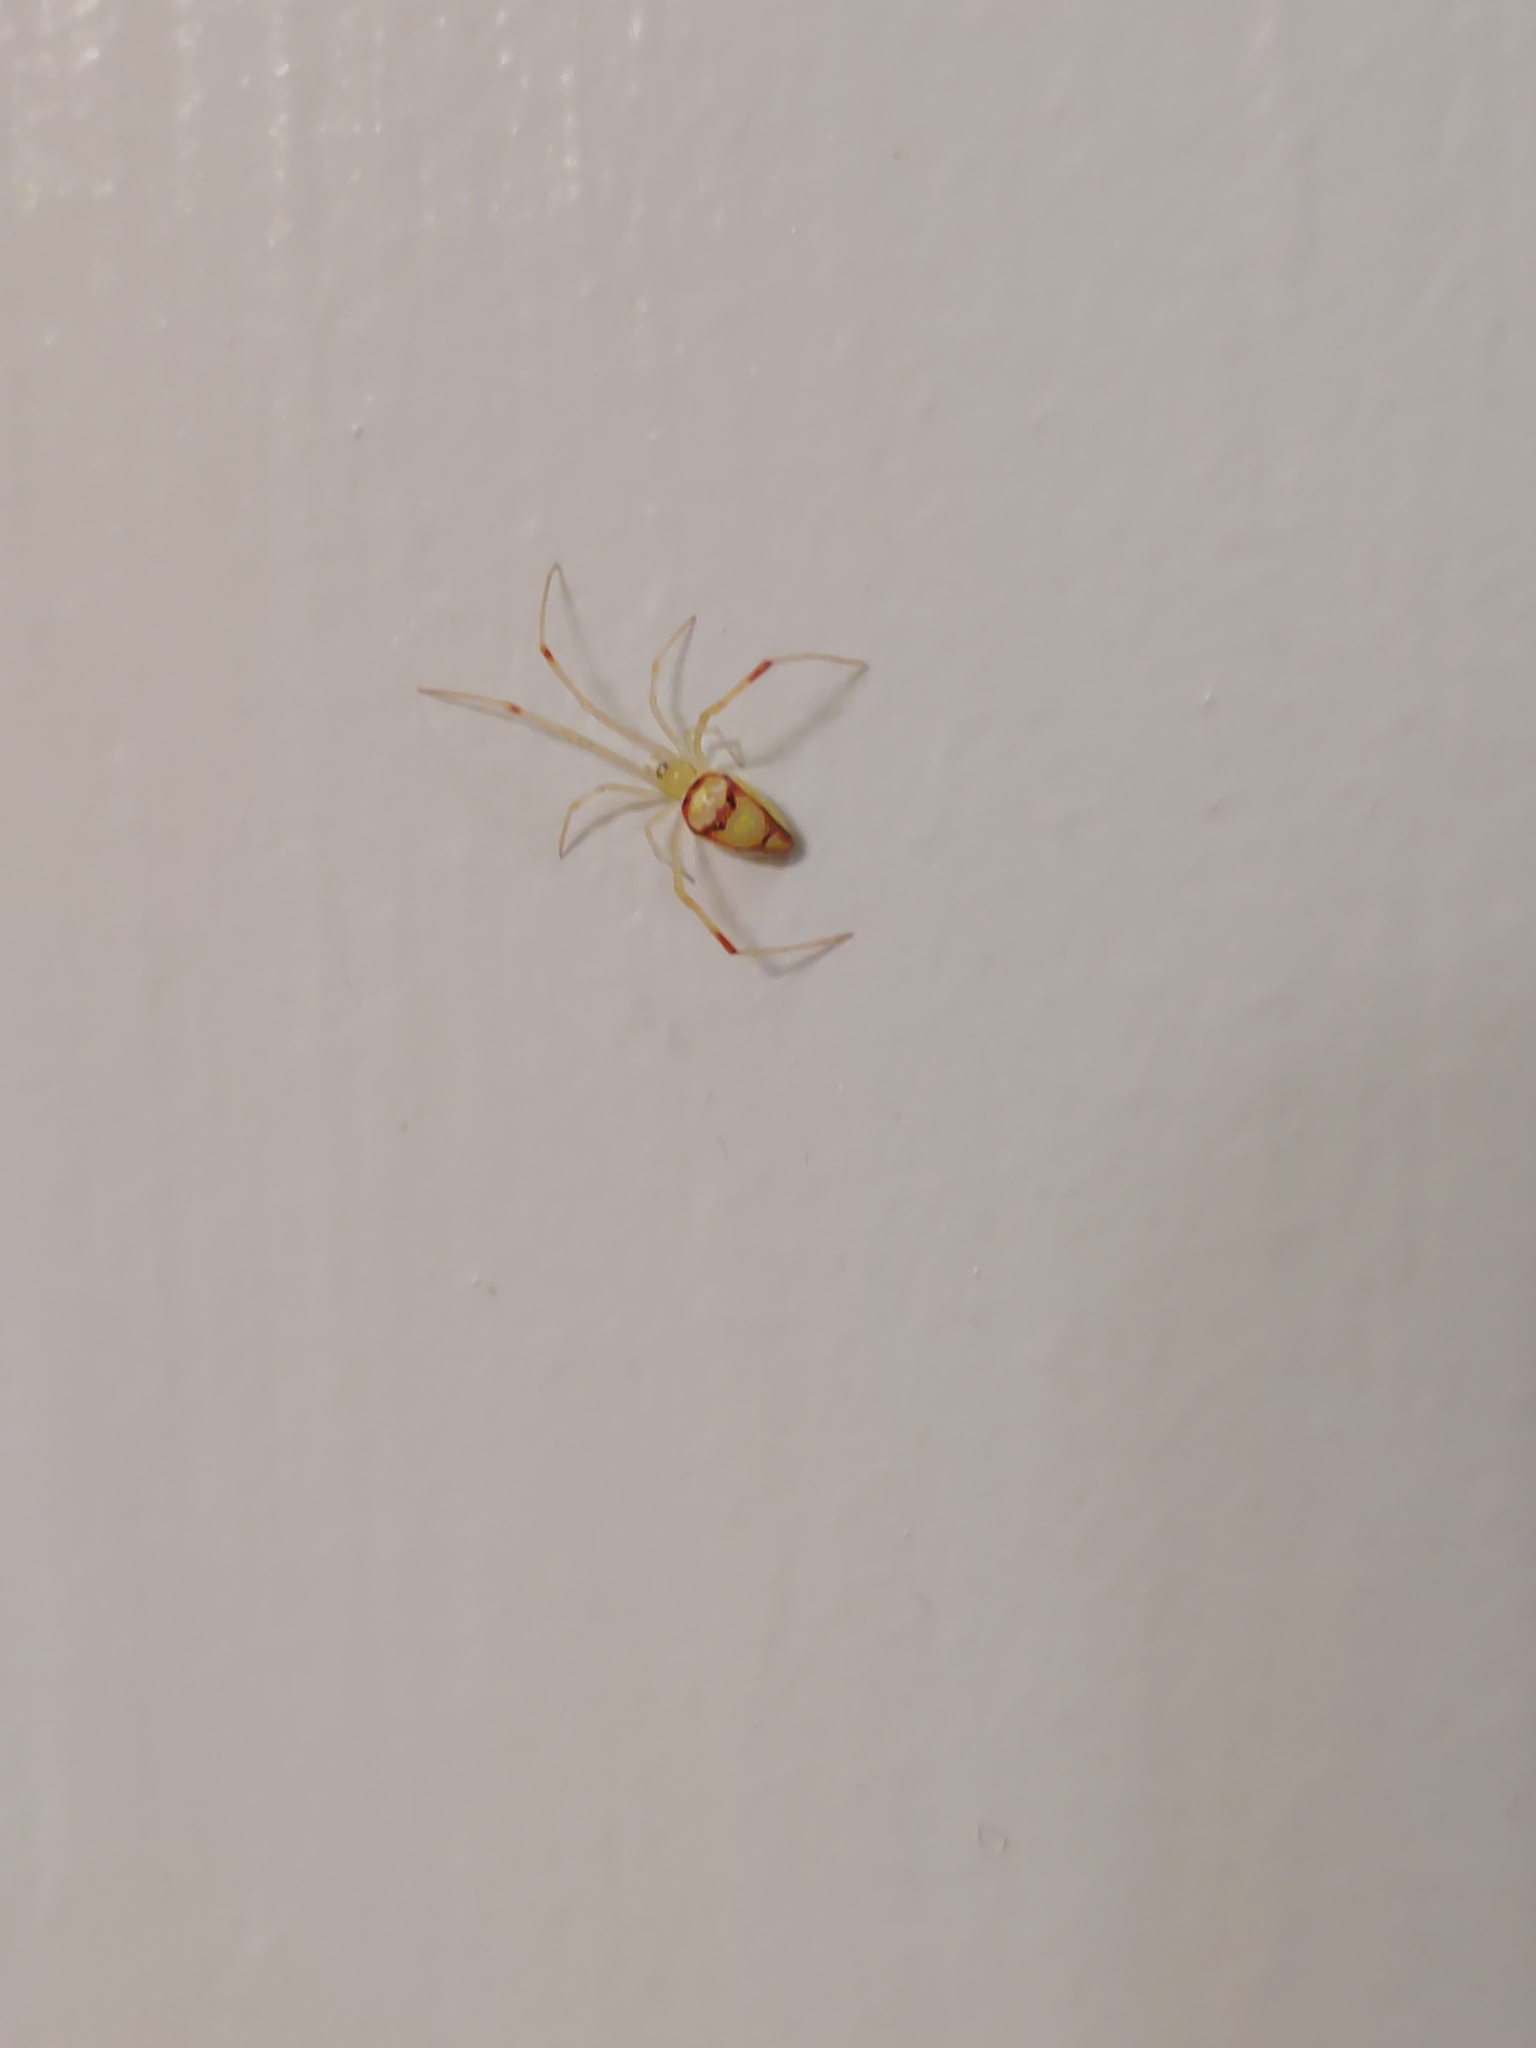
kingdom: Animalia
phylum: Arthropoda
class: Arachnida
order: Araneae
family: Theridiidae
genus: Spintharus
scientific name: Spintharus flavidus
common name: Cobweb spiders
